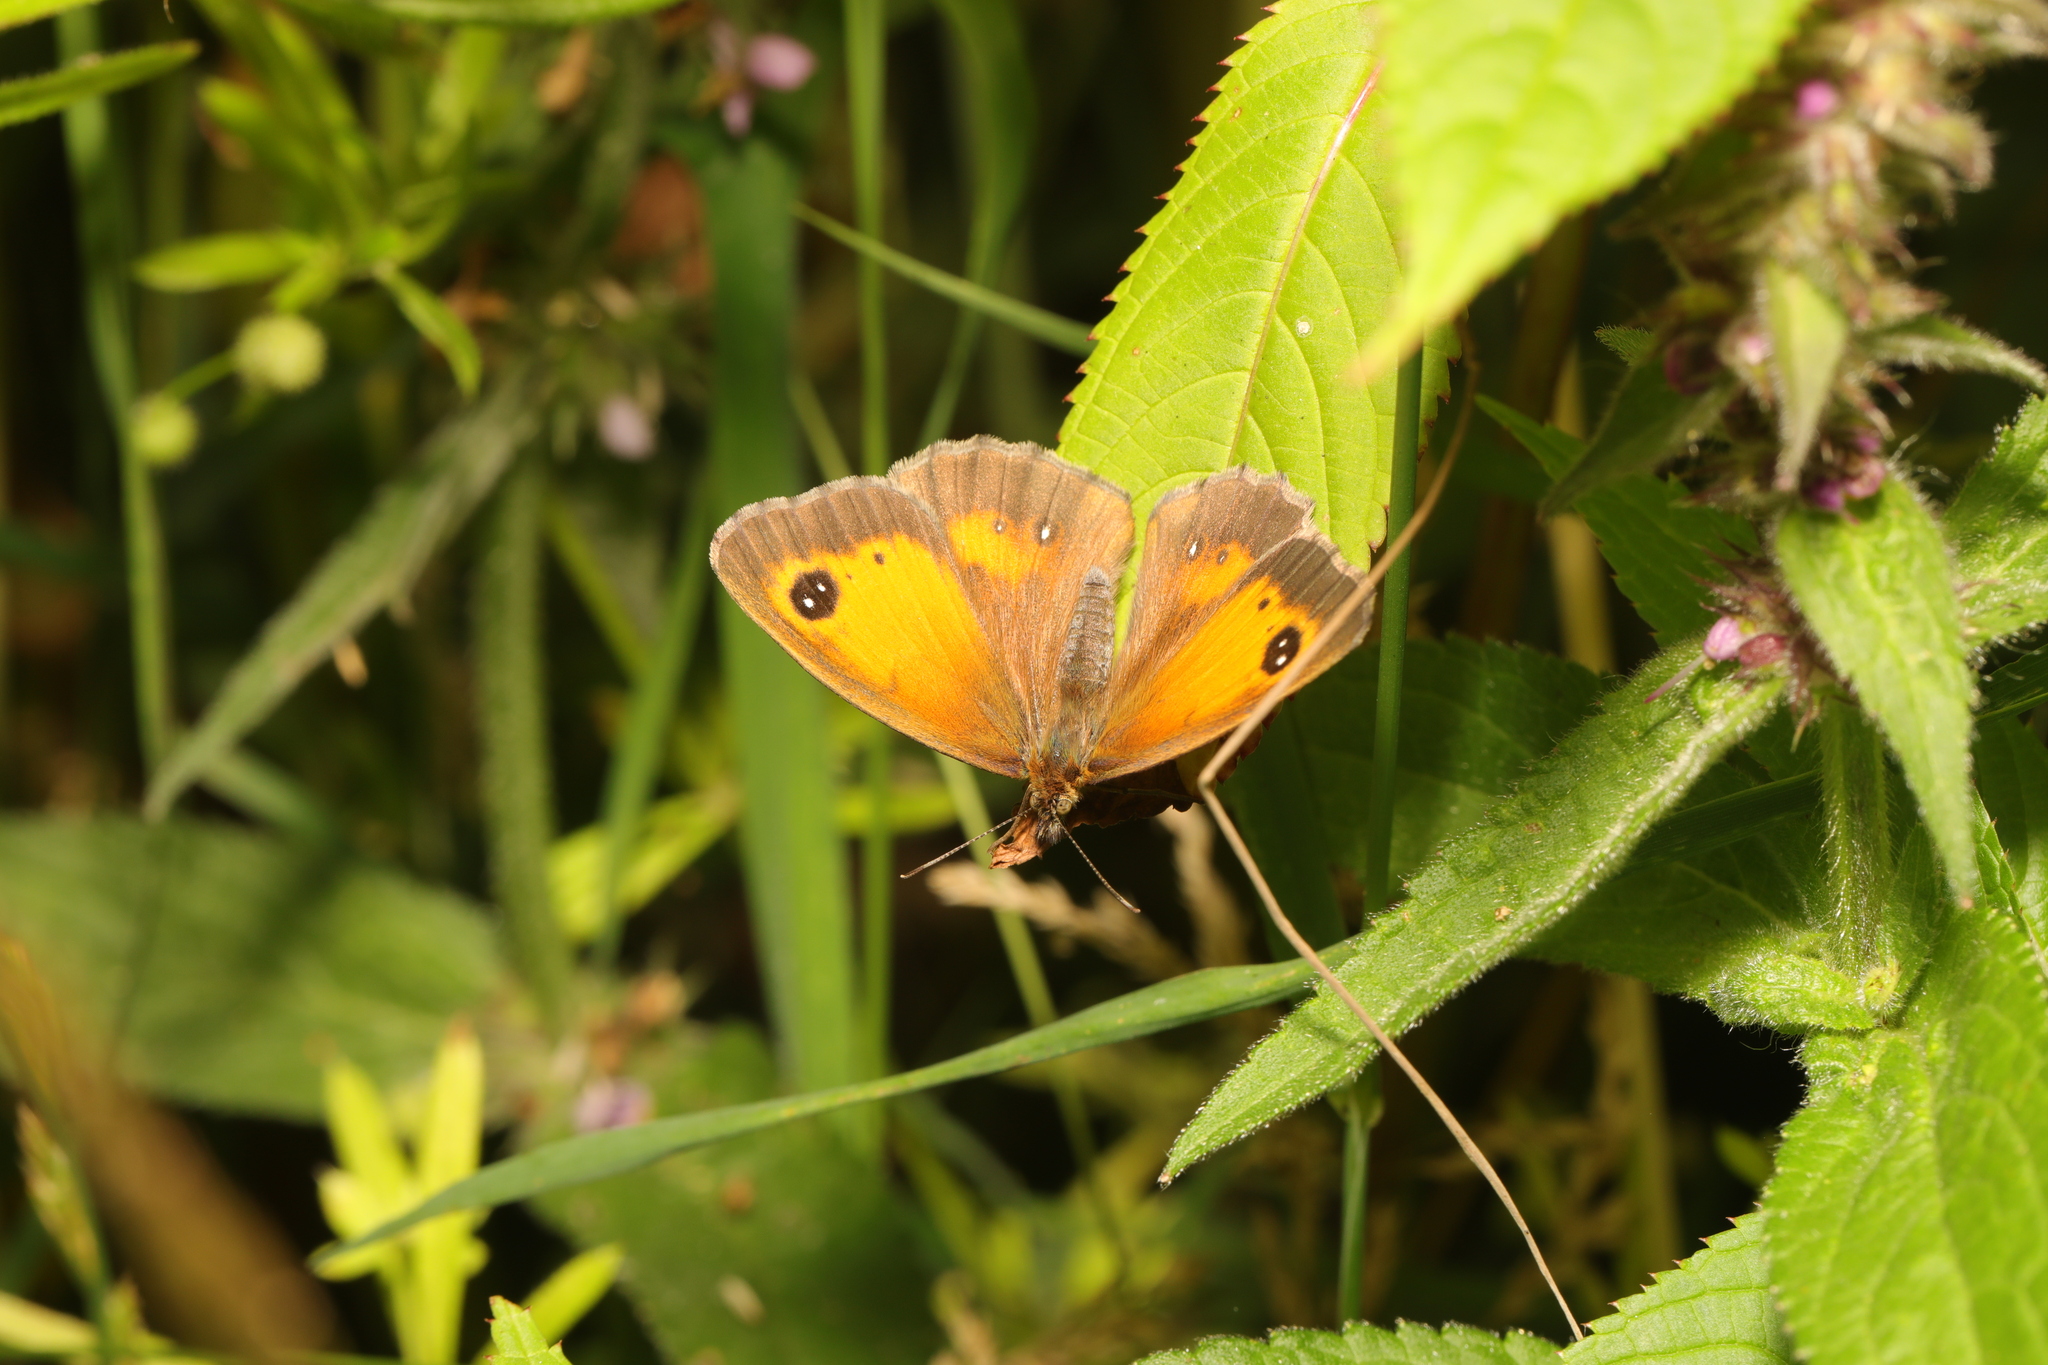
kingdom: Animalia
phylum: Arthropoda
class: Insecta
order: Lepidoptera
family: Nymphalidae
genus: Pyronia
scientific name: Pyronia tithonus
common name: Gatekeeper
